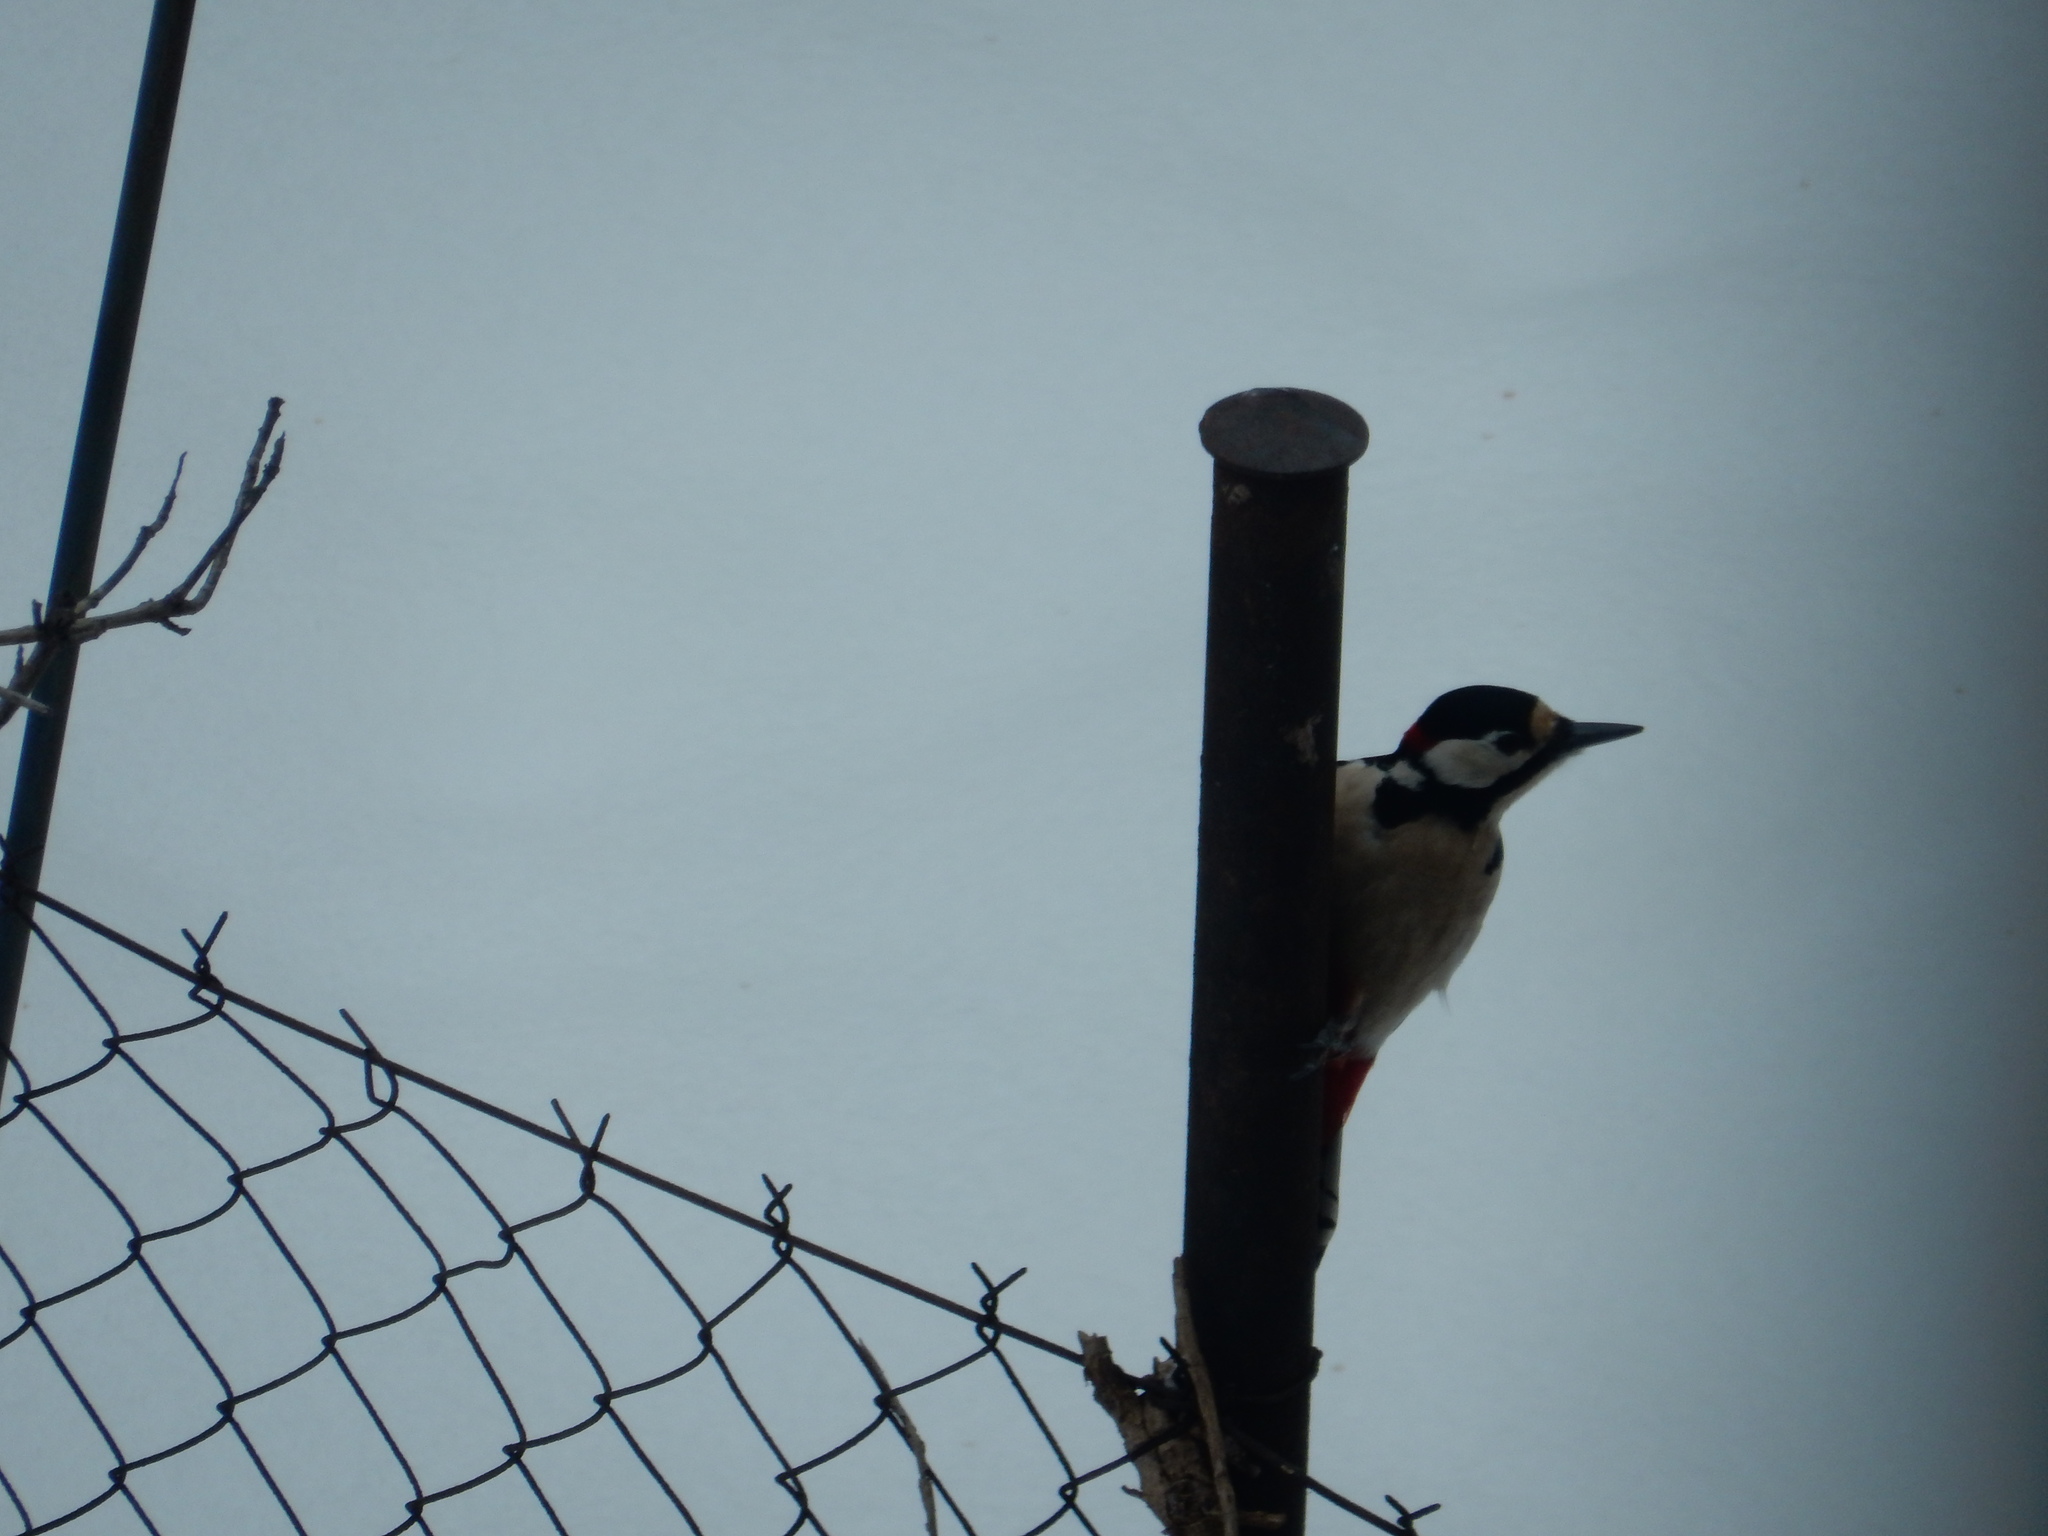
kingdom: Animalia
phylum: Chordata
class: Aves
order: Piciformes
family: Picidae
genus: Dendrocopos
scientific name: Dendrocopos major
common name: Great spotted woodpecker
